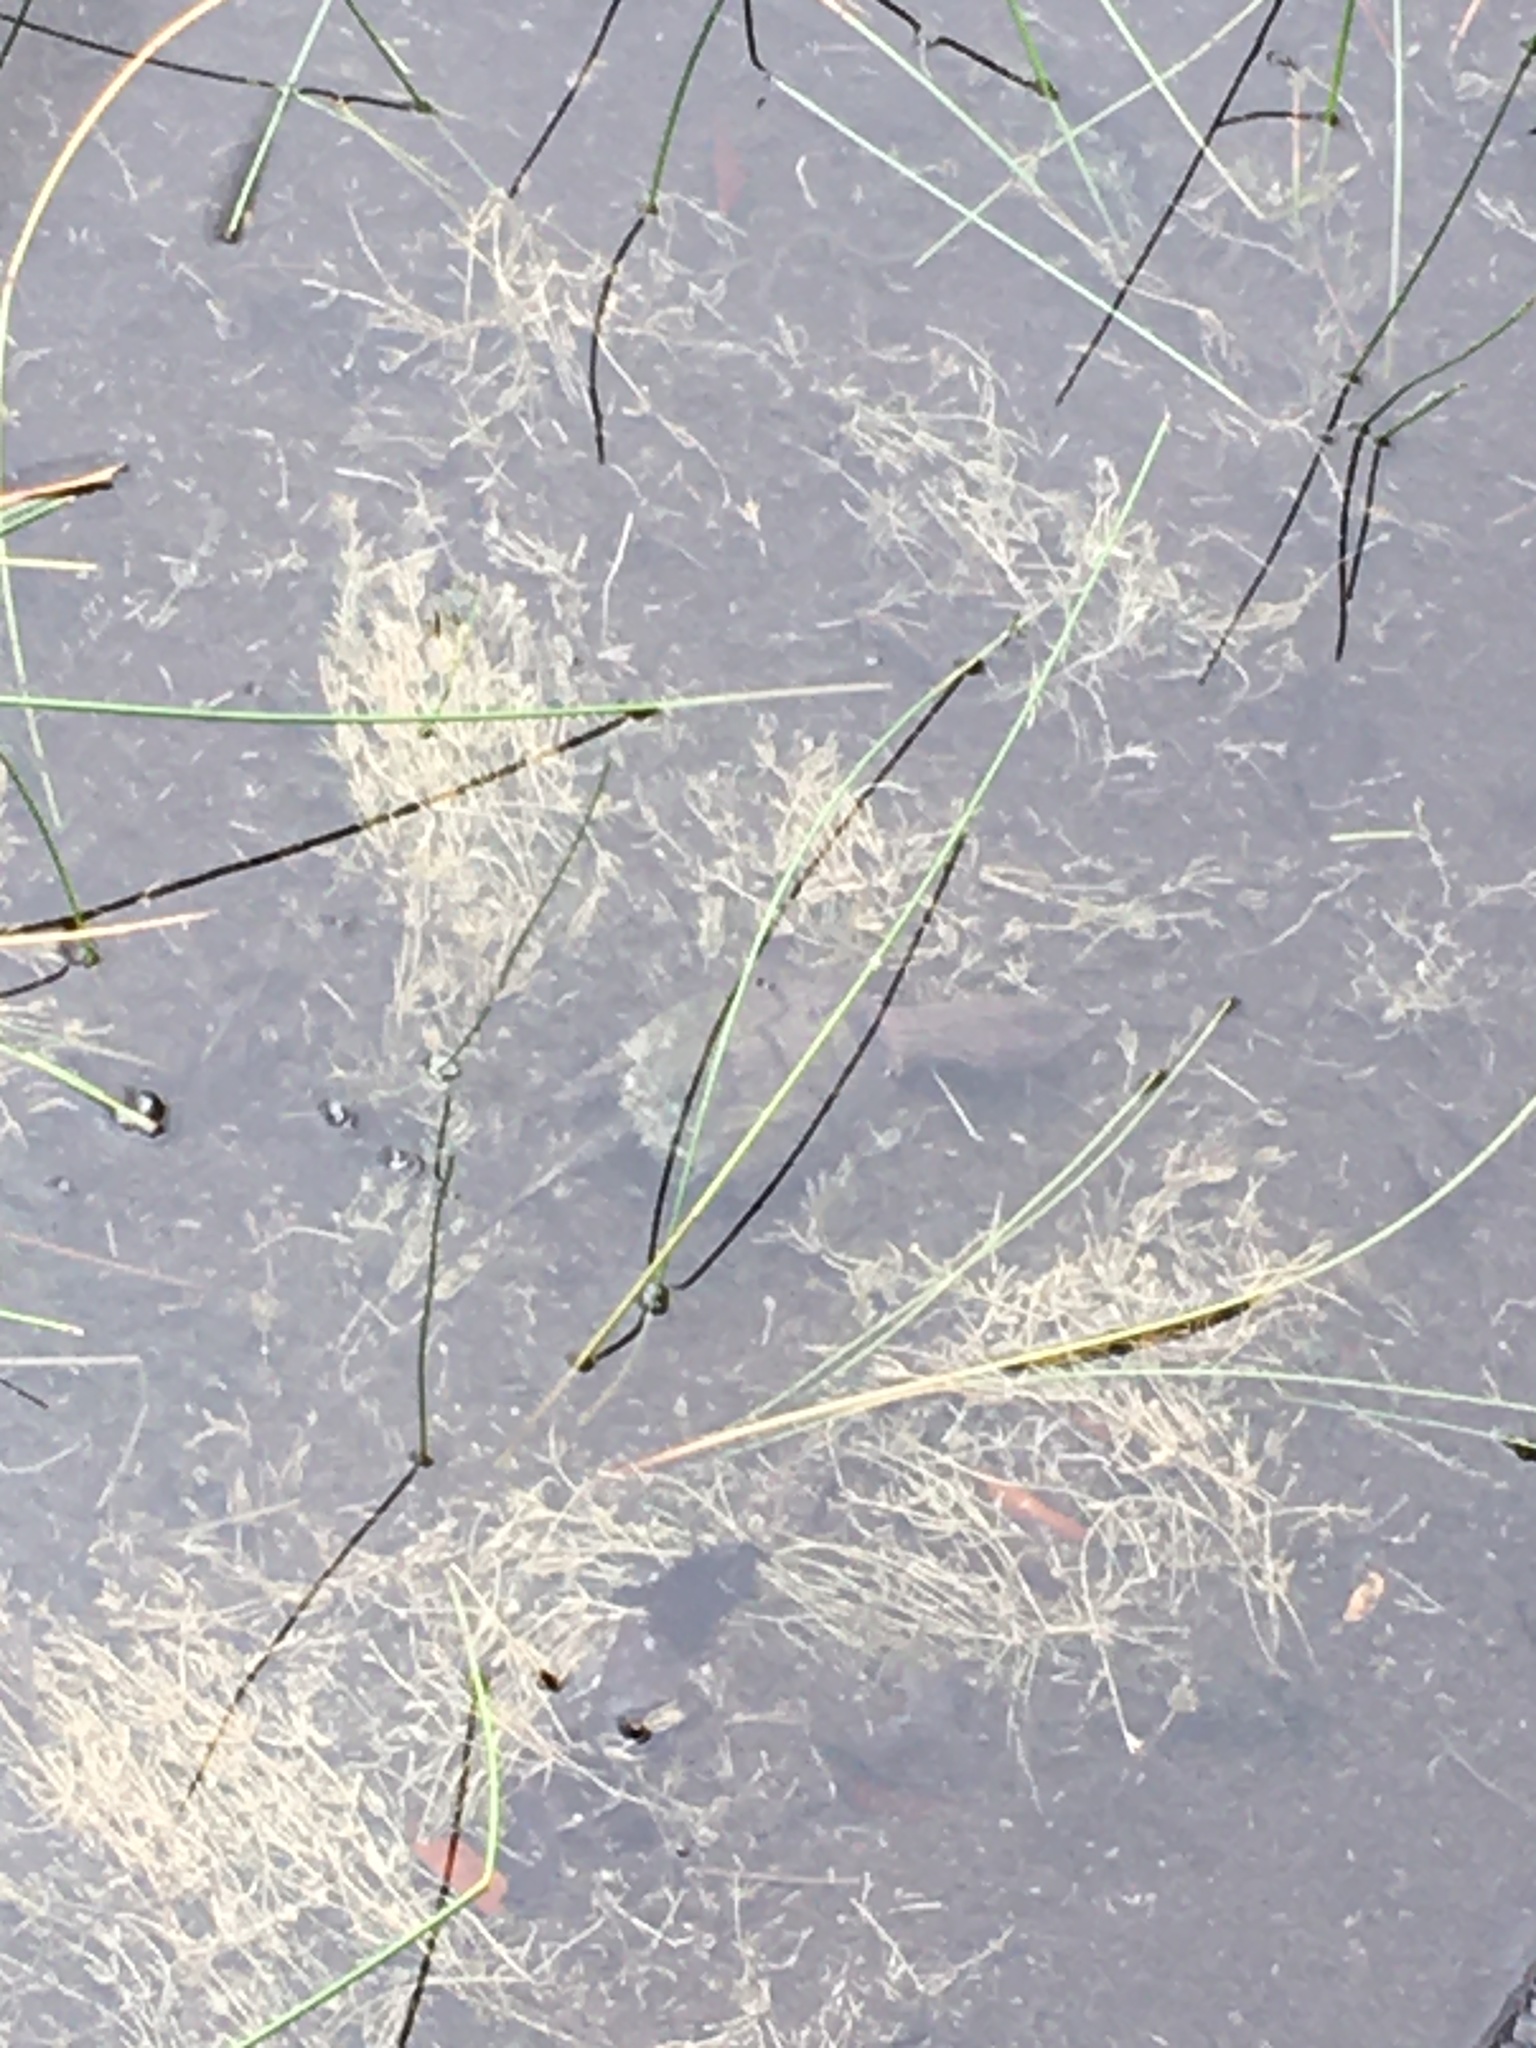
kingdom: Animalia
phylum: Chordata
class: Testudines
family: Chelydridae
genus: Chelydra
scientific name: Chelydra serpentina
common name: Common snapping turtle
